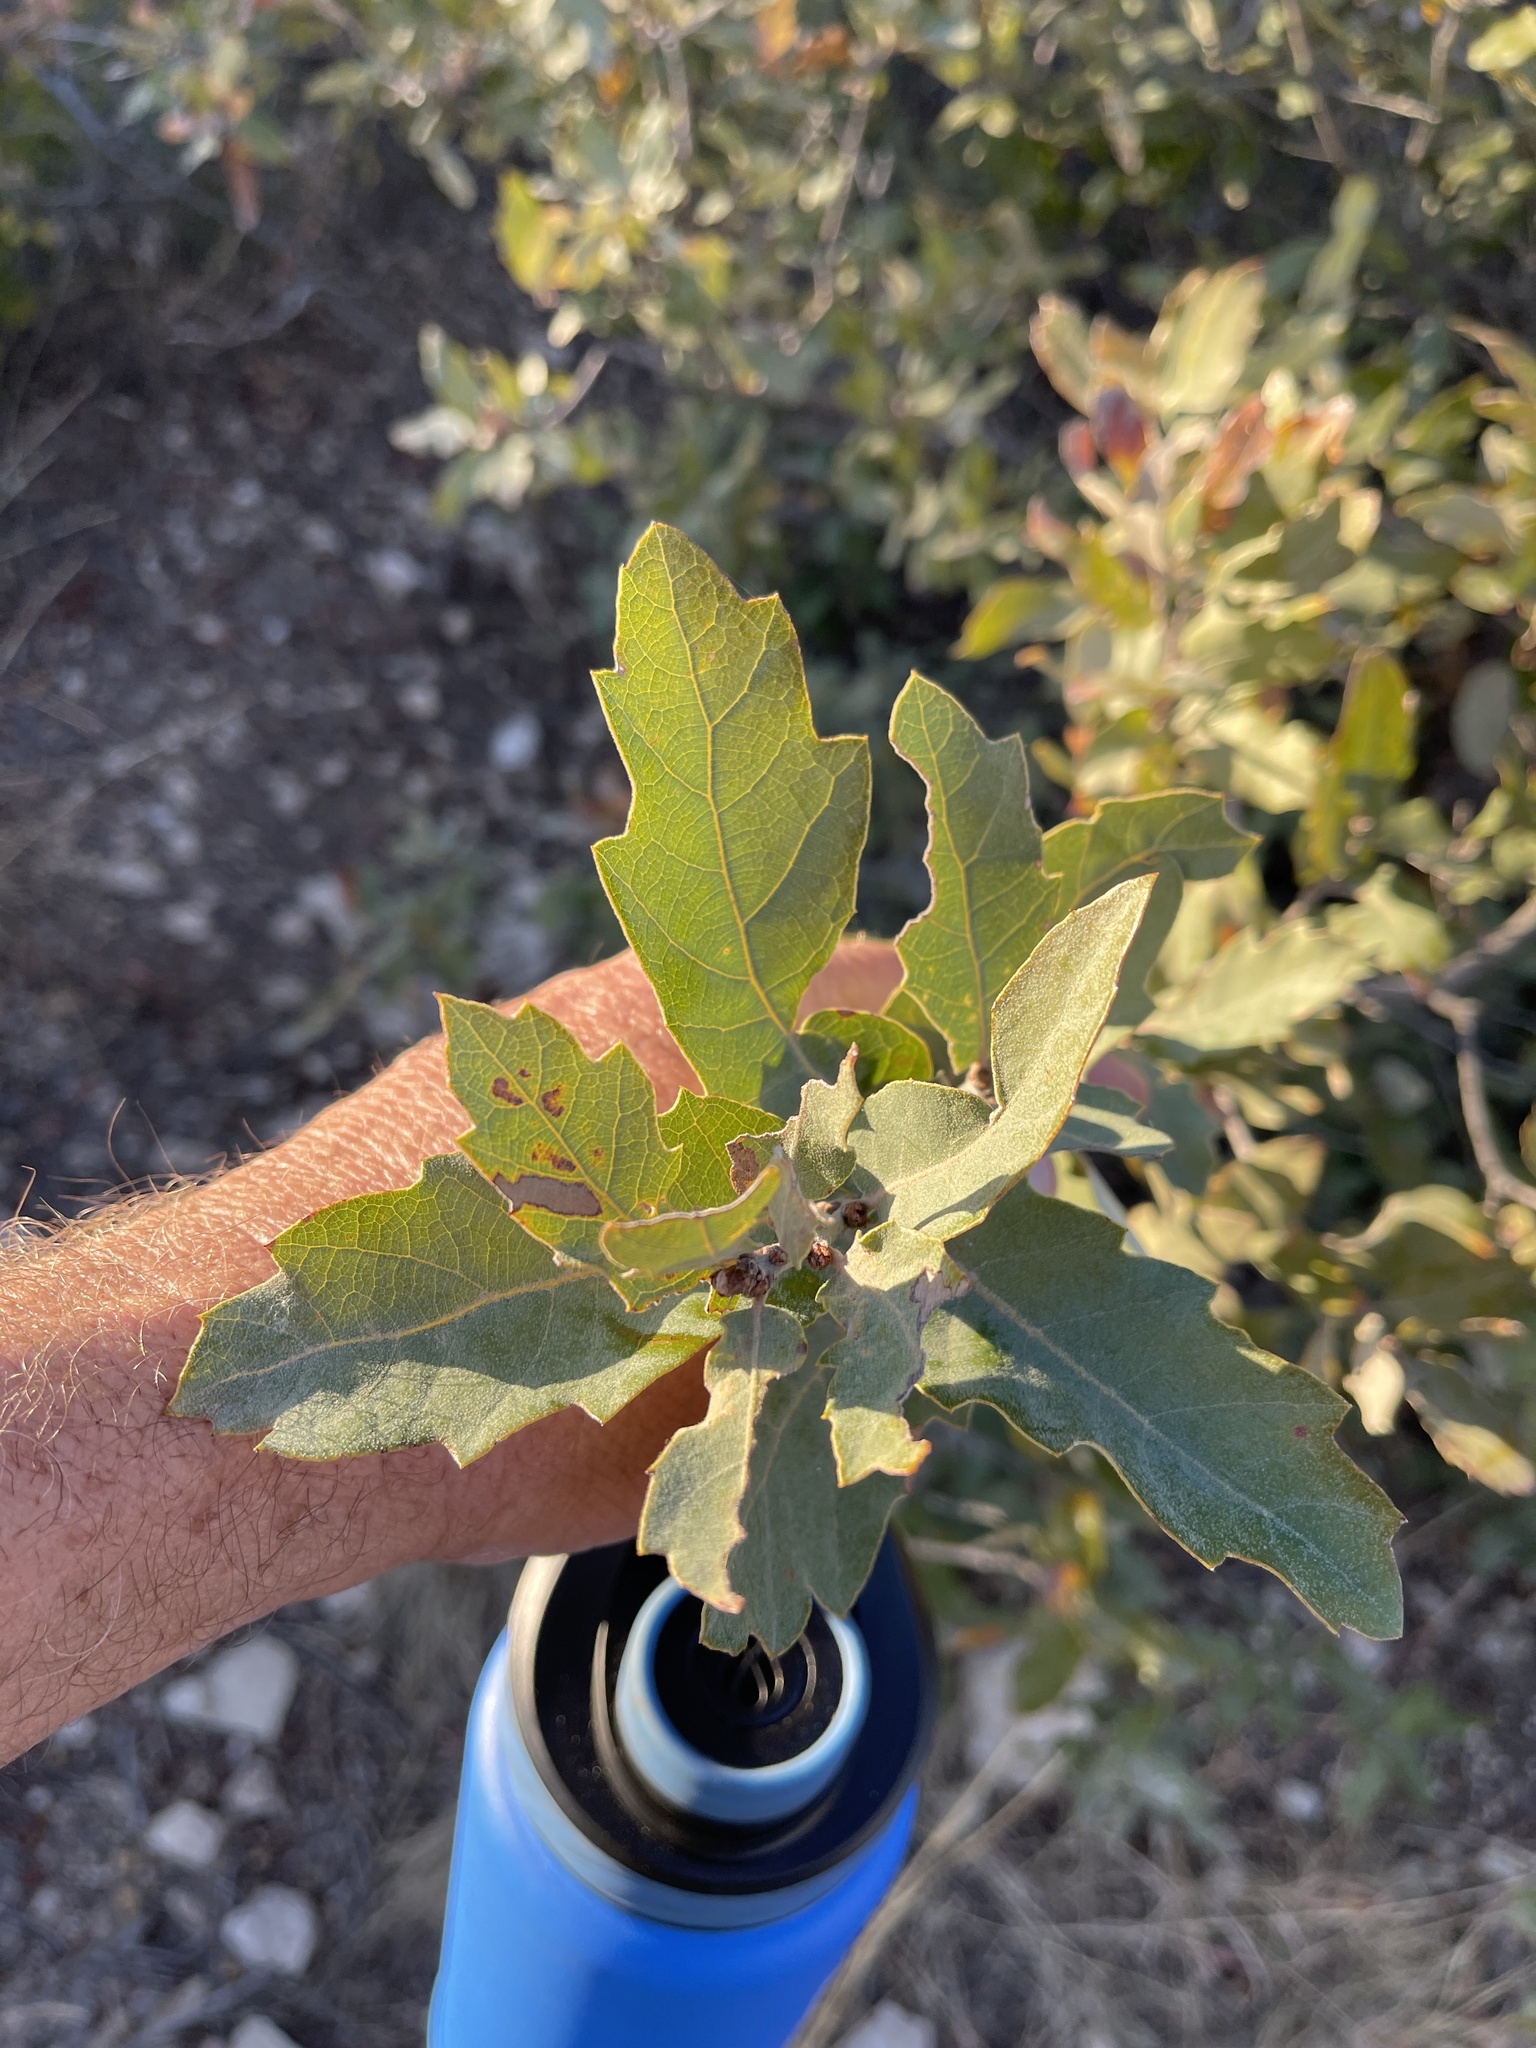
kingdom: Plantae
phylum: Tracheophyta
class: Magnoliopsida
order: Fagales
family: Fagaceae
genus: Quercus
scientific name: Quercus havardii
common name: Shinnery oak
